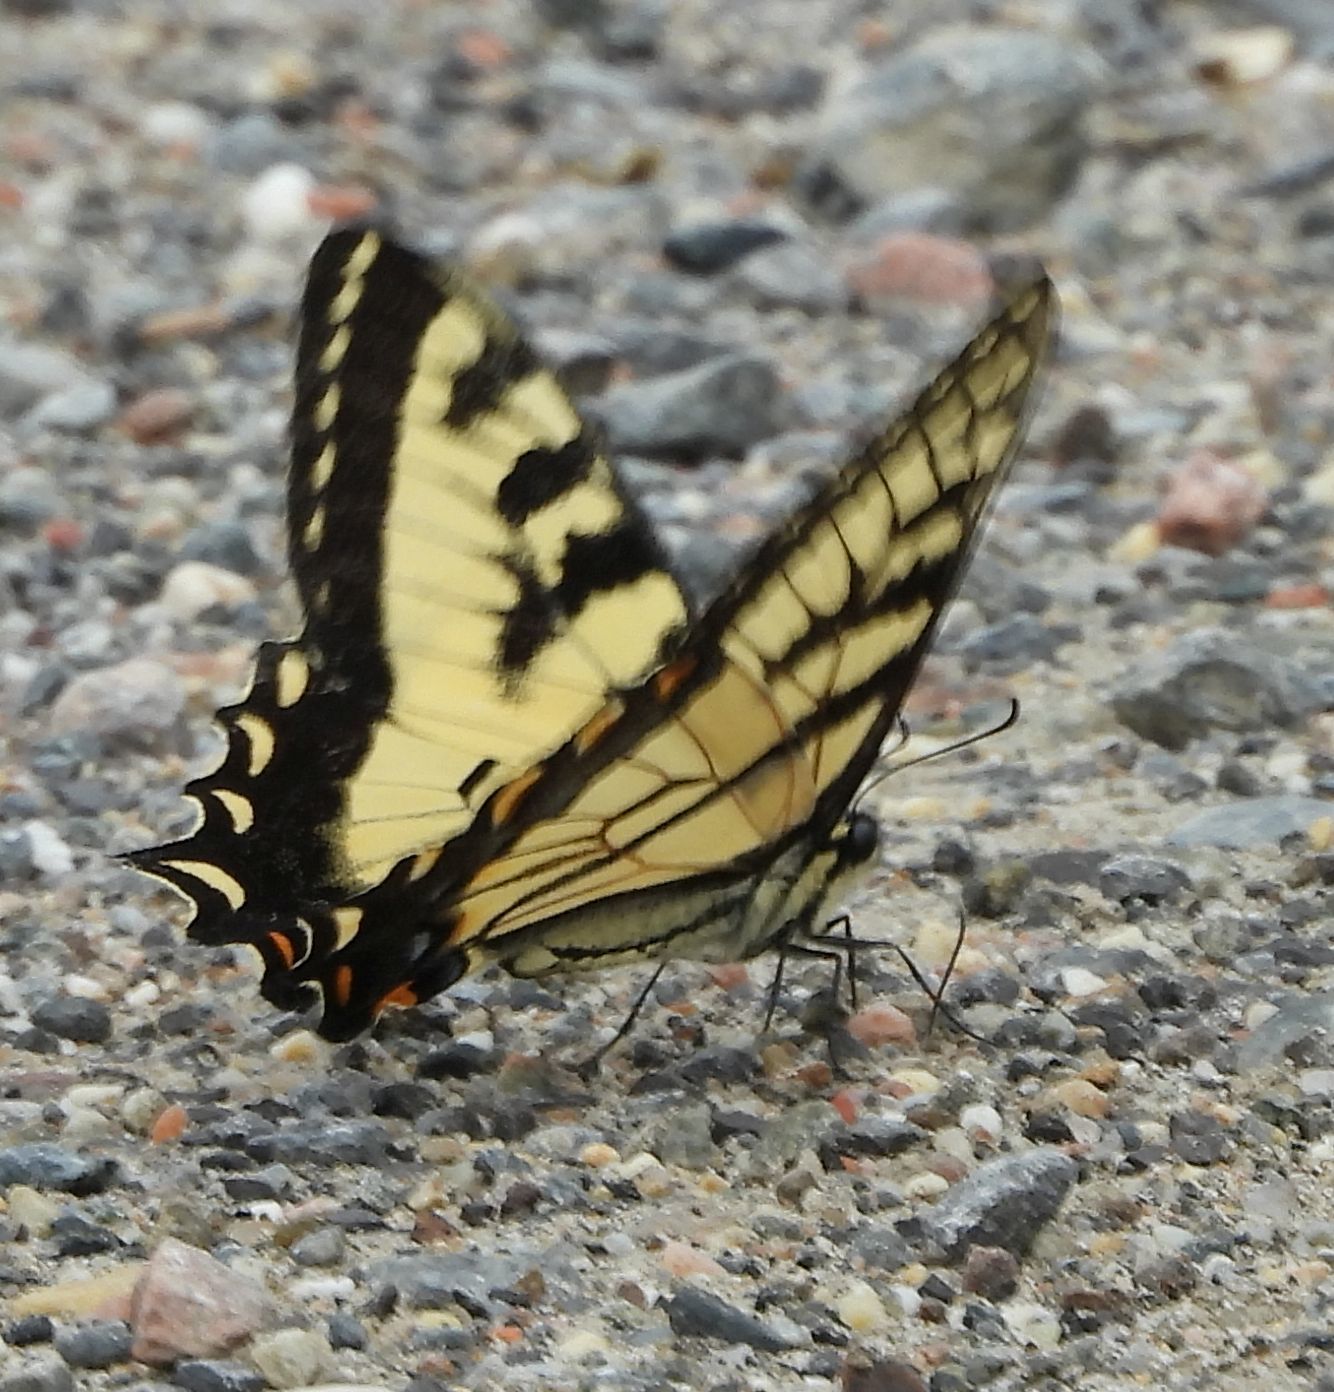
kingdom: Animalia
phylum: Arthropoda
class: Insecta
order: Lepidoptera
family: Papilionidae
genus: Papilio
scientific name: Papilio
